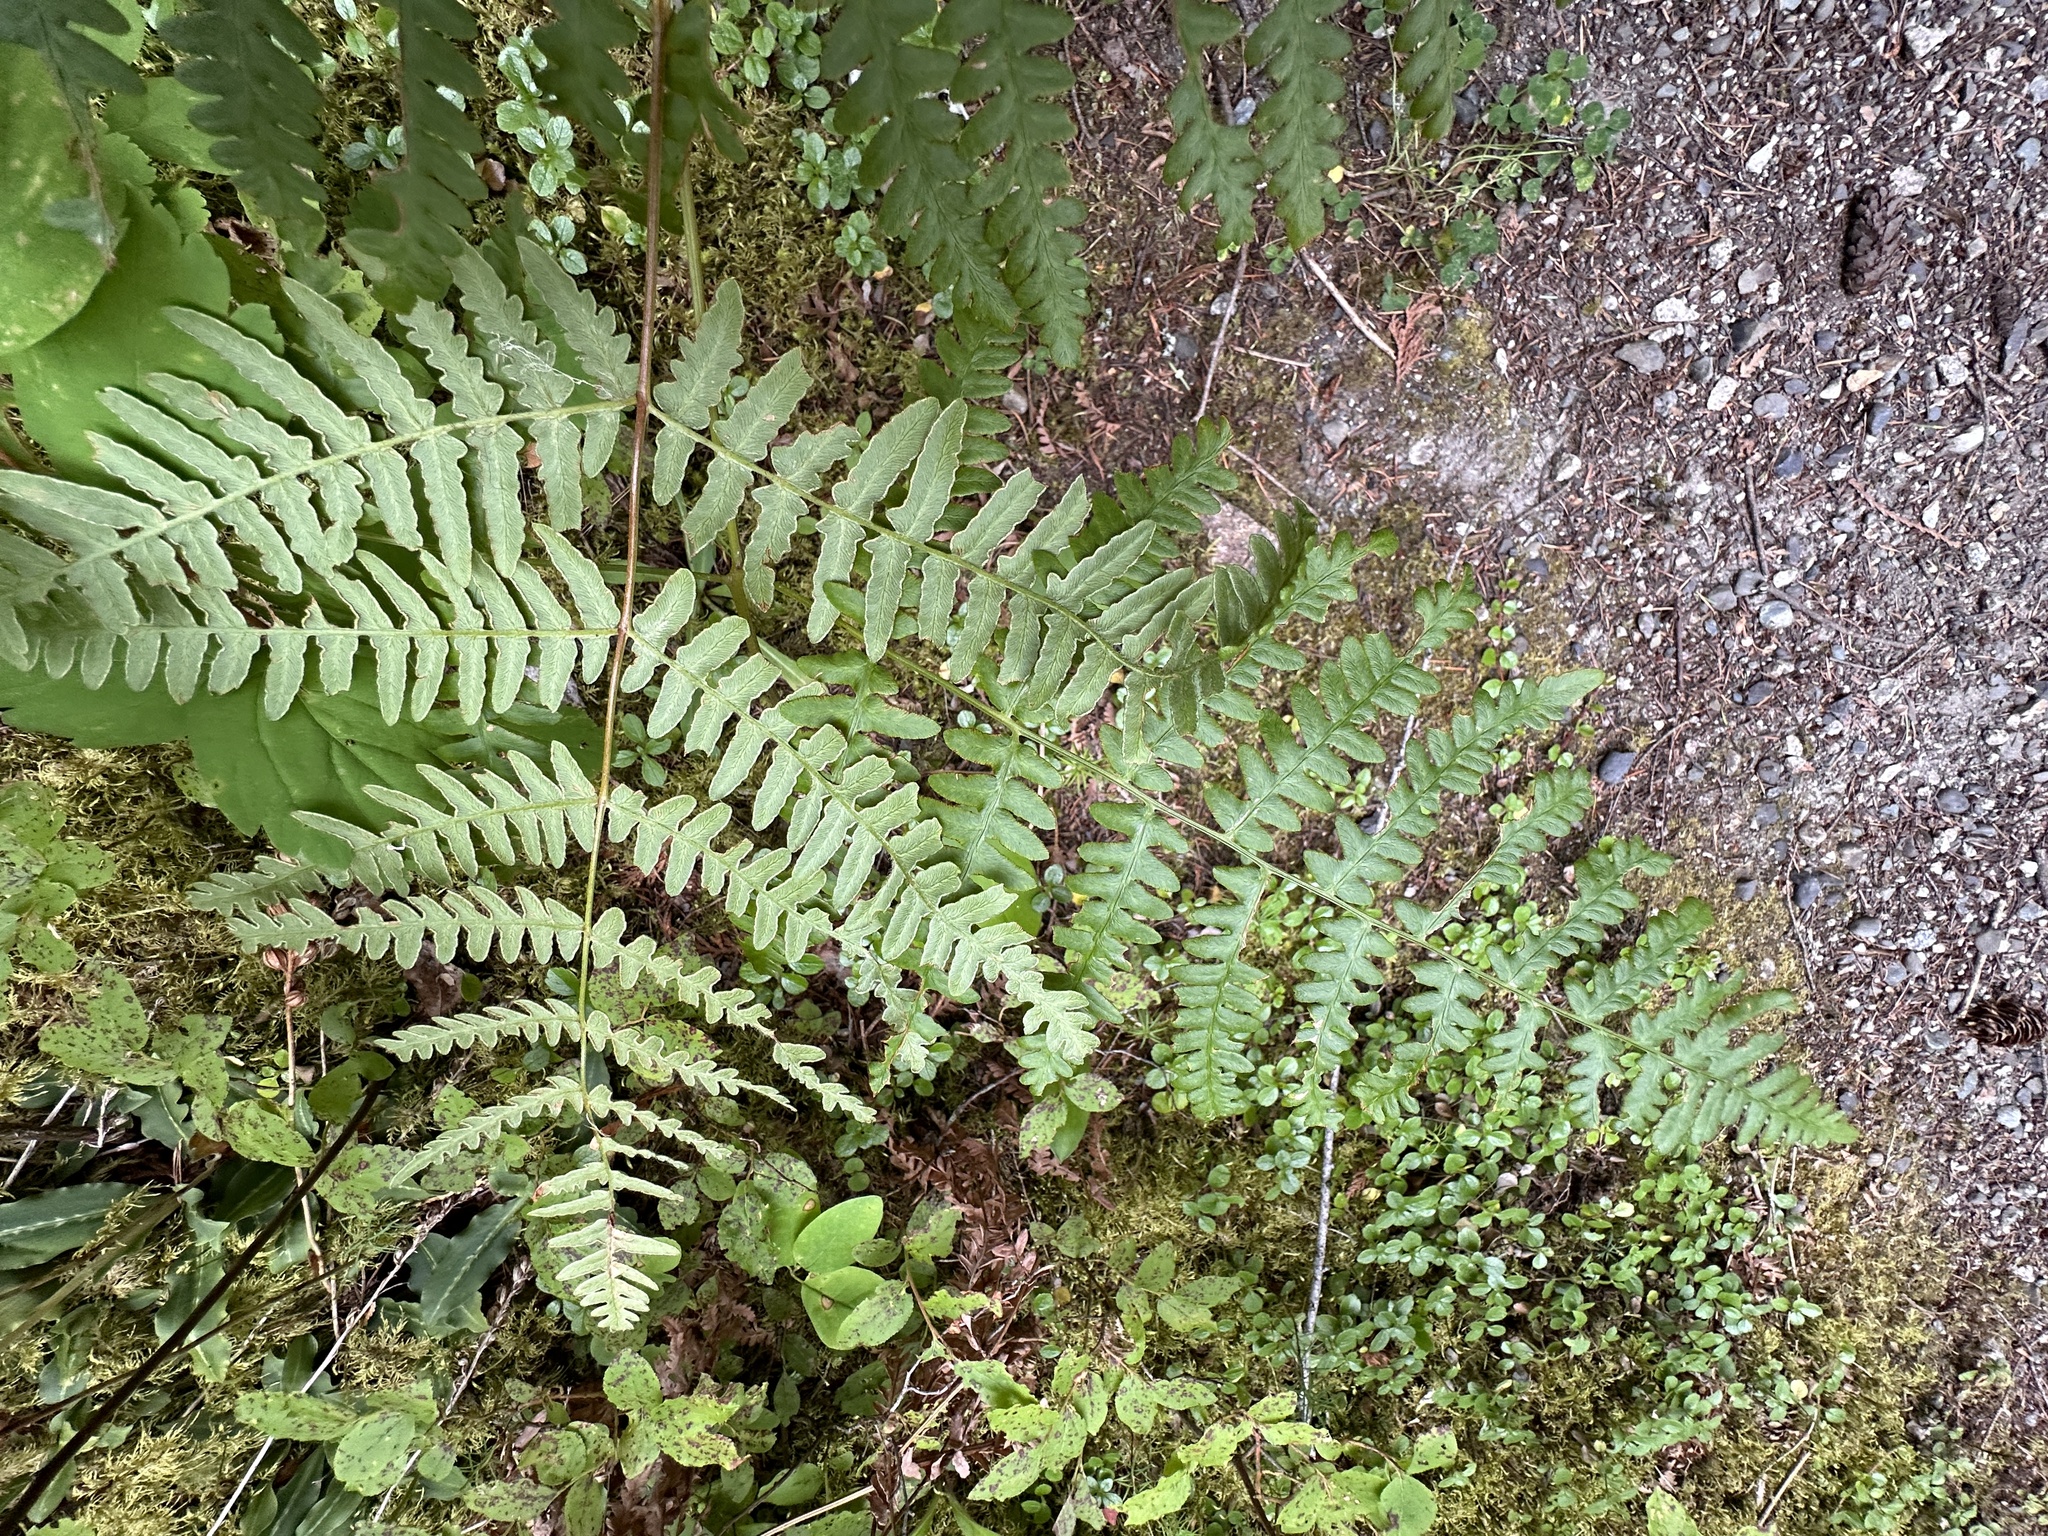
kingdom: Plantae
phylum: Tracheophyta
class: Polypodiopsida
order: Polypodiales
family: Dennstaedtiaceae
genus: Pteridium
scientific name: Pteridium aquilinum
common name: Bracken
